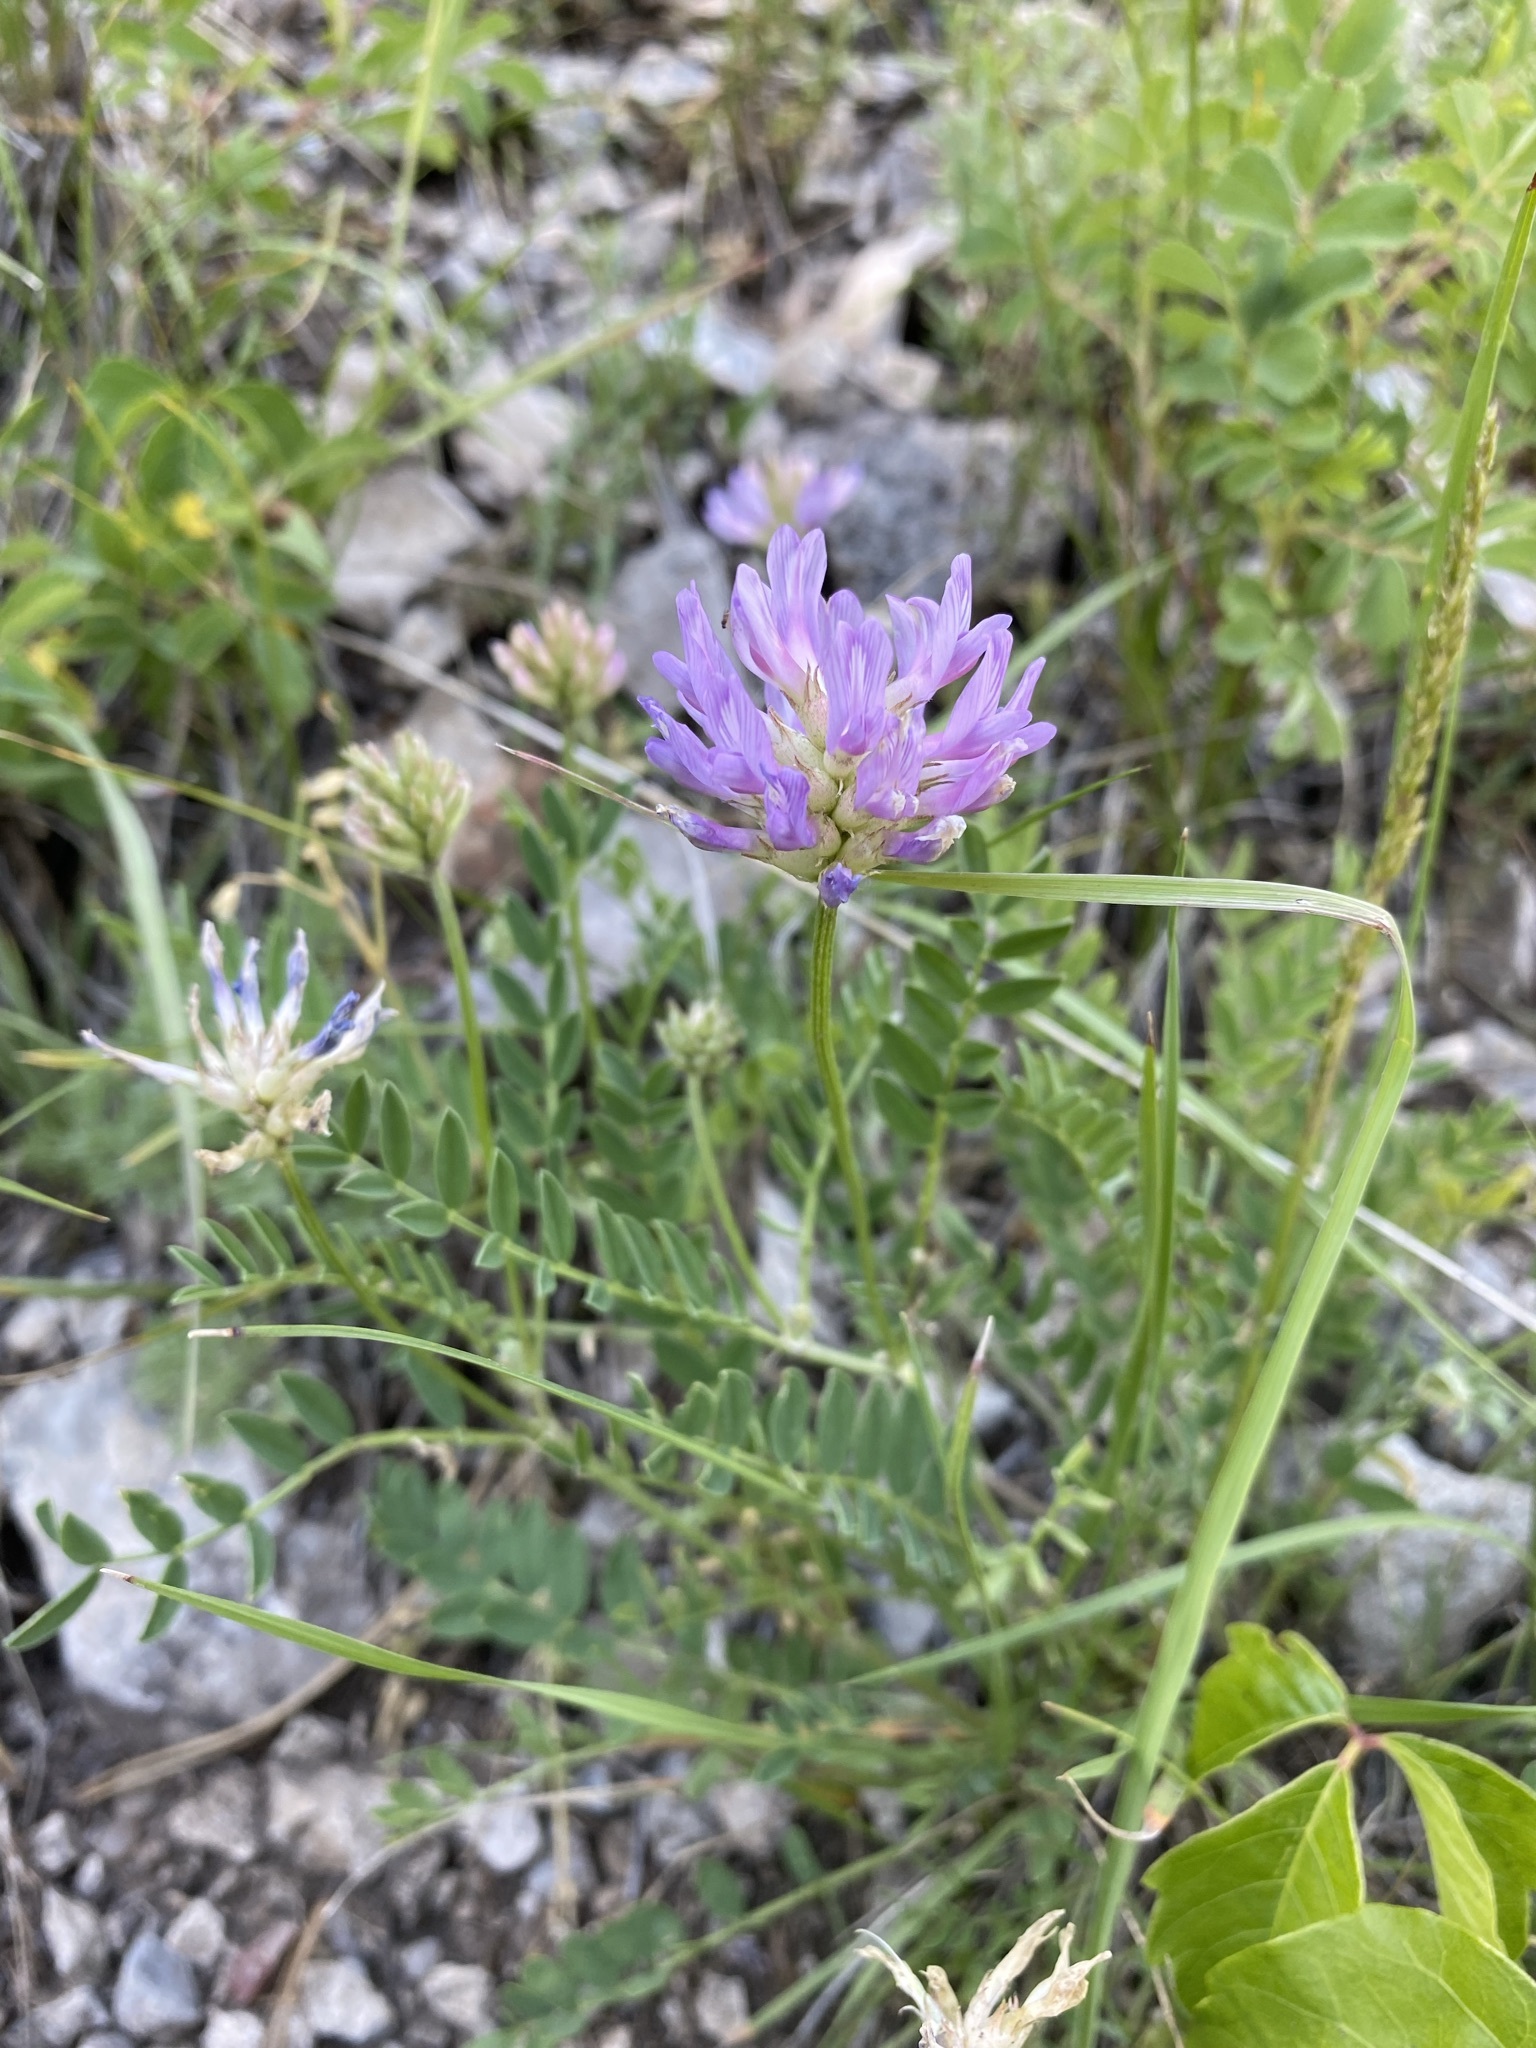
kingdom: Plantae
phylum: Tracheophyta
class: Magnoliopsida
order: Fabales
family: Fabaceae
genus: Astragalus
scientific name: Astragalus laxmannii
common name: Laxmann's milk-vetch
